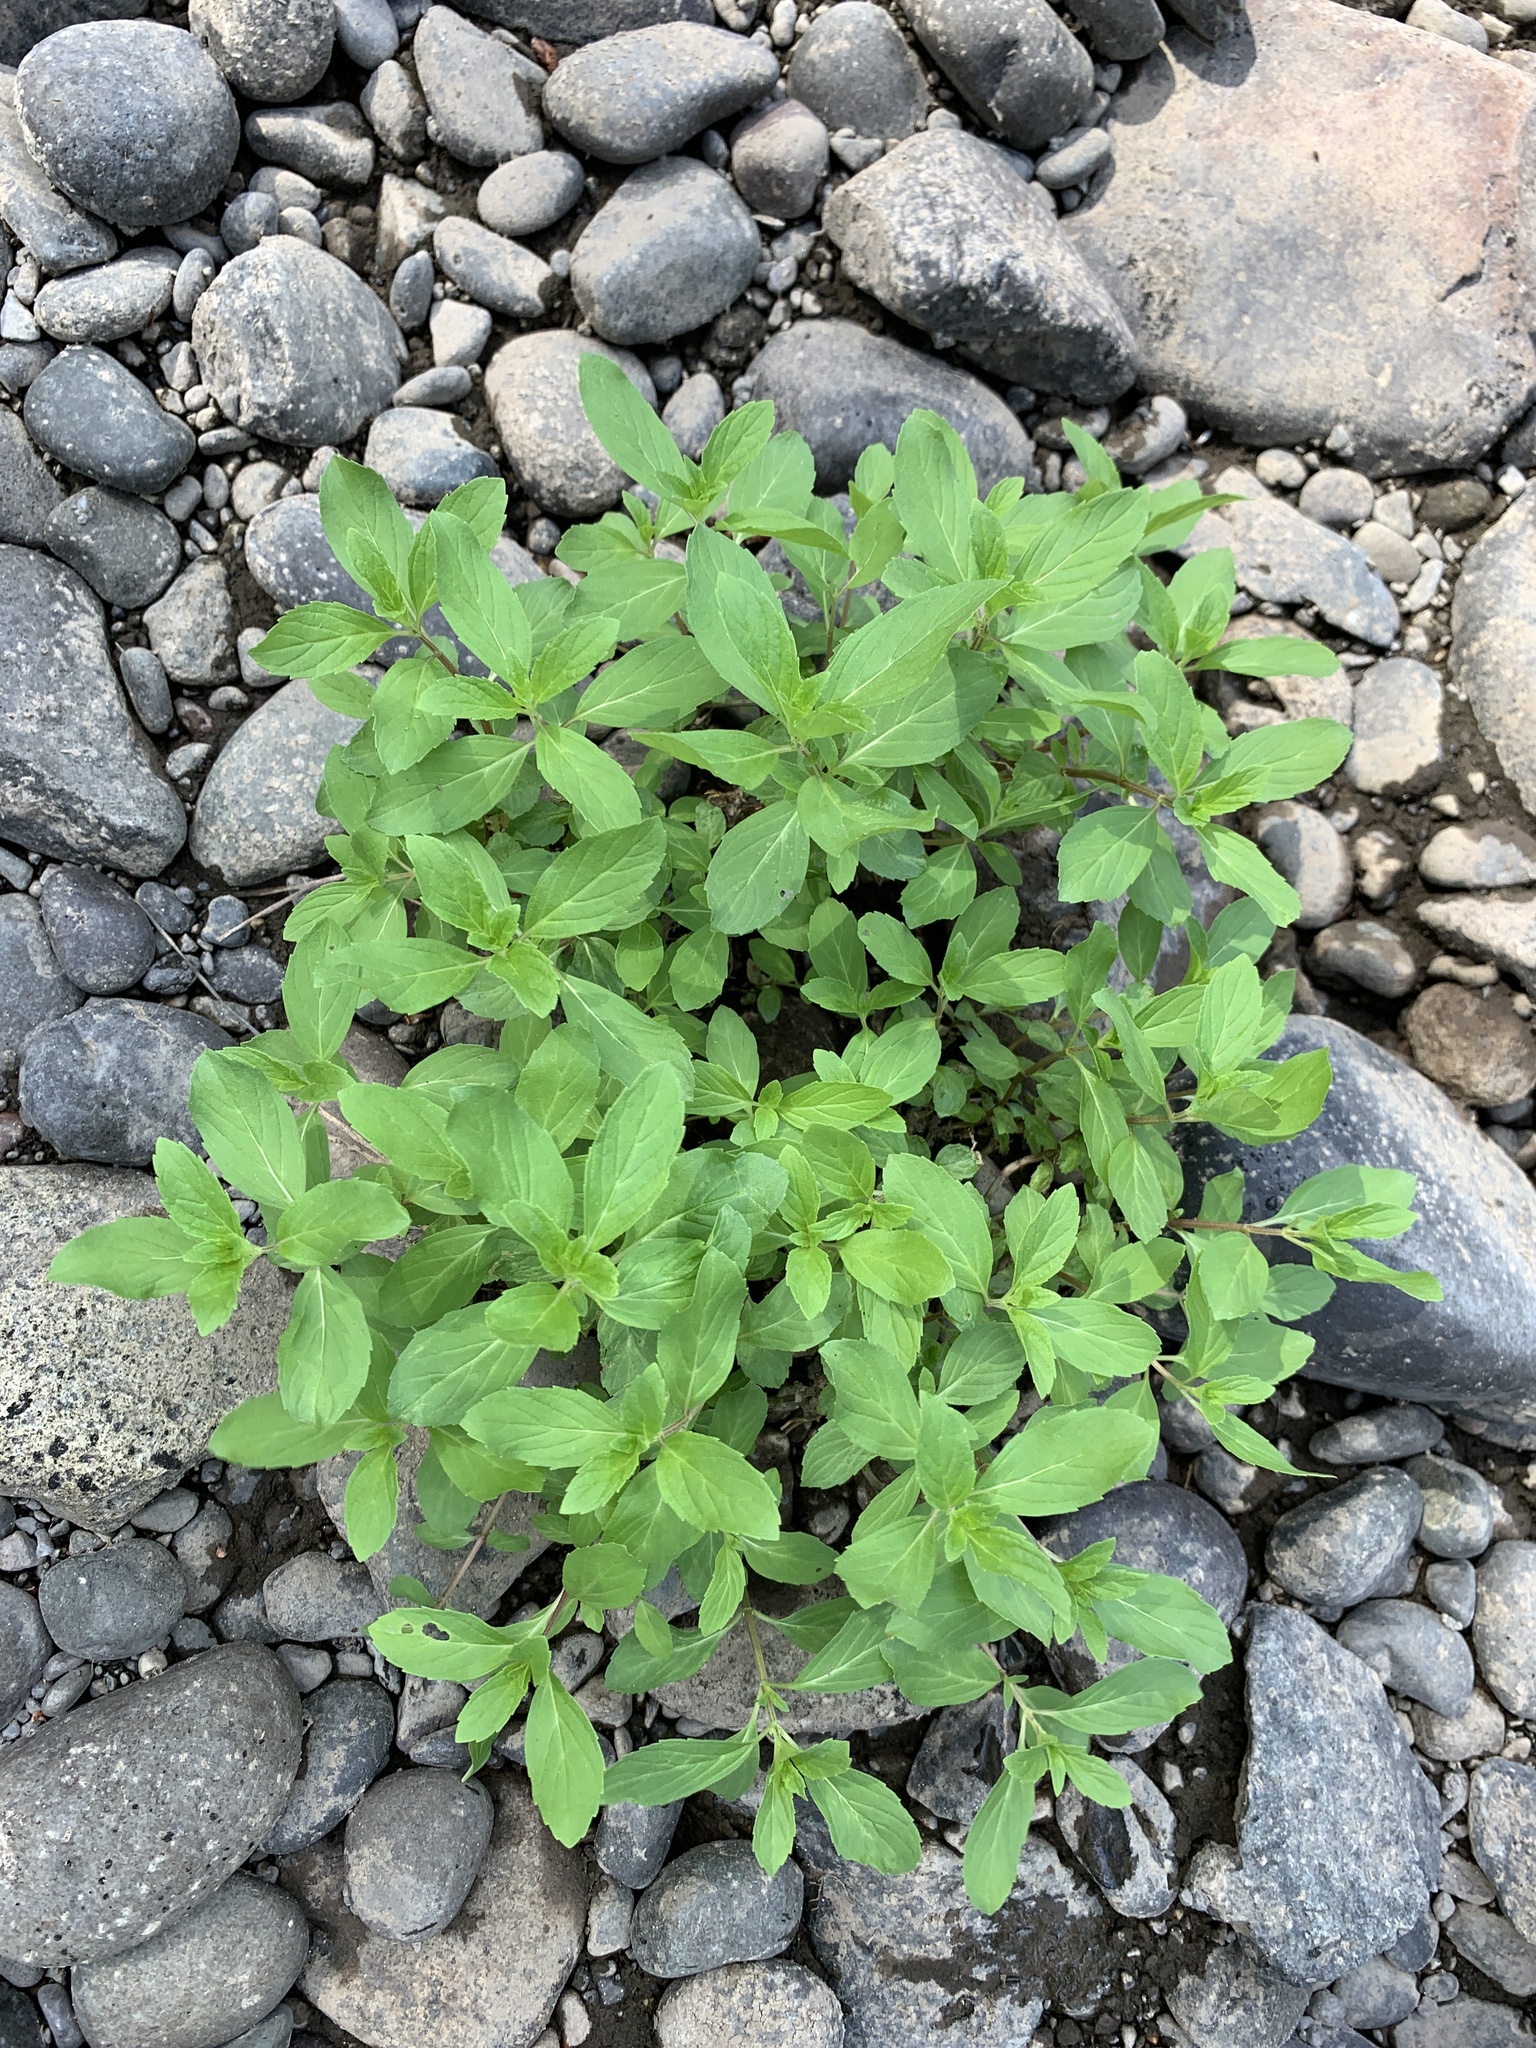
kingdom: Plantae
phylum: Tracheophyta
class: Magnoliopsida
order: Lamiales
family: Lamiaceae
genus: Mentha
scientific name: Mentha canadensis
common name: American corn mint
